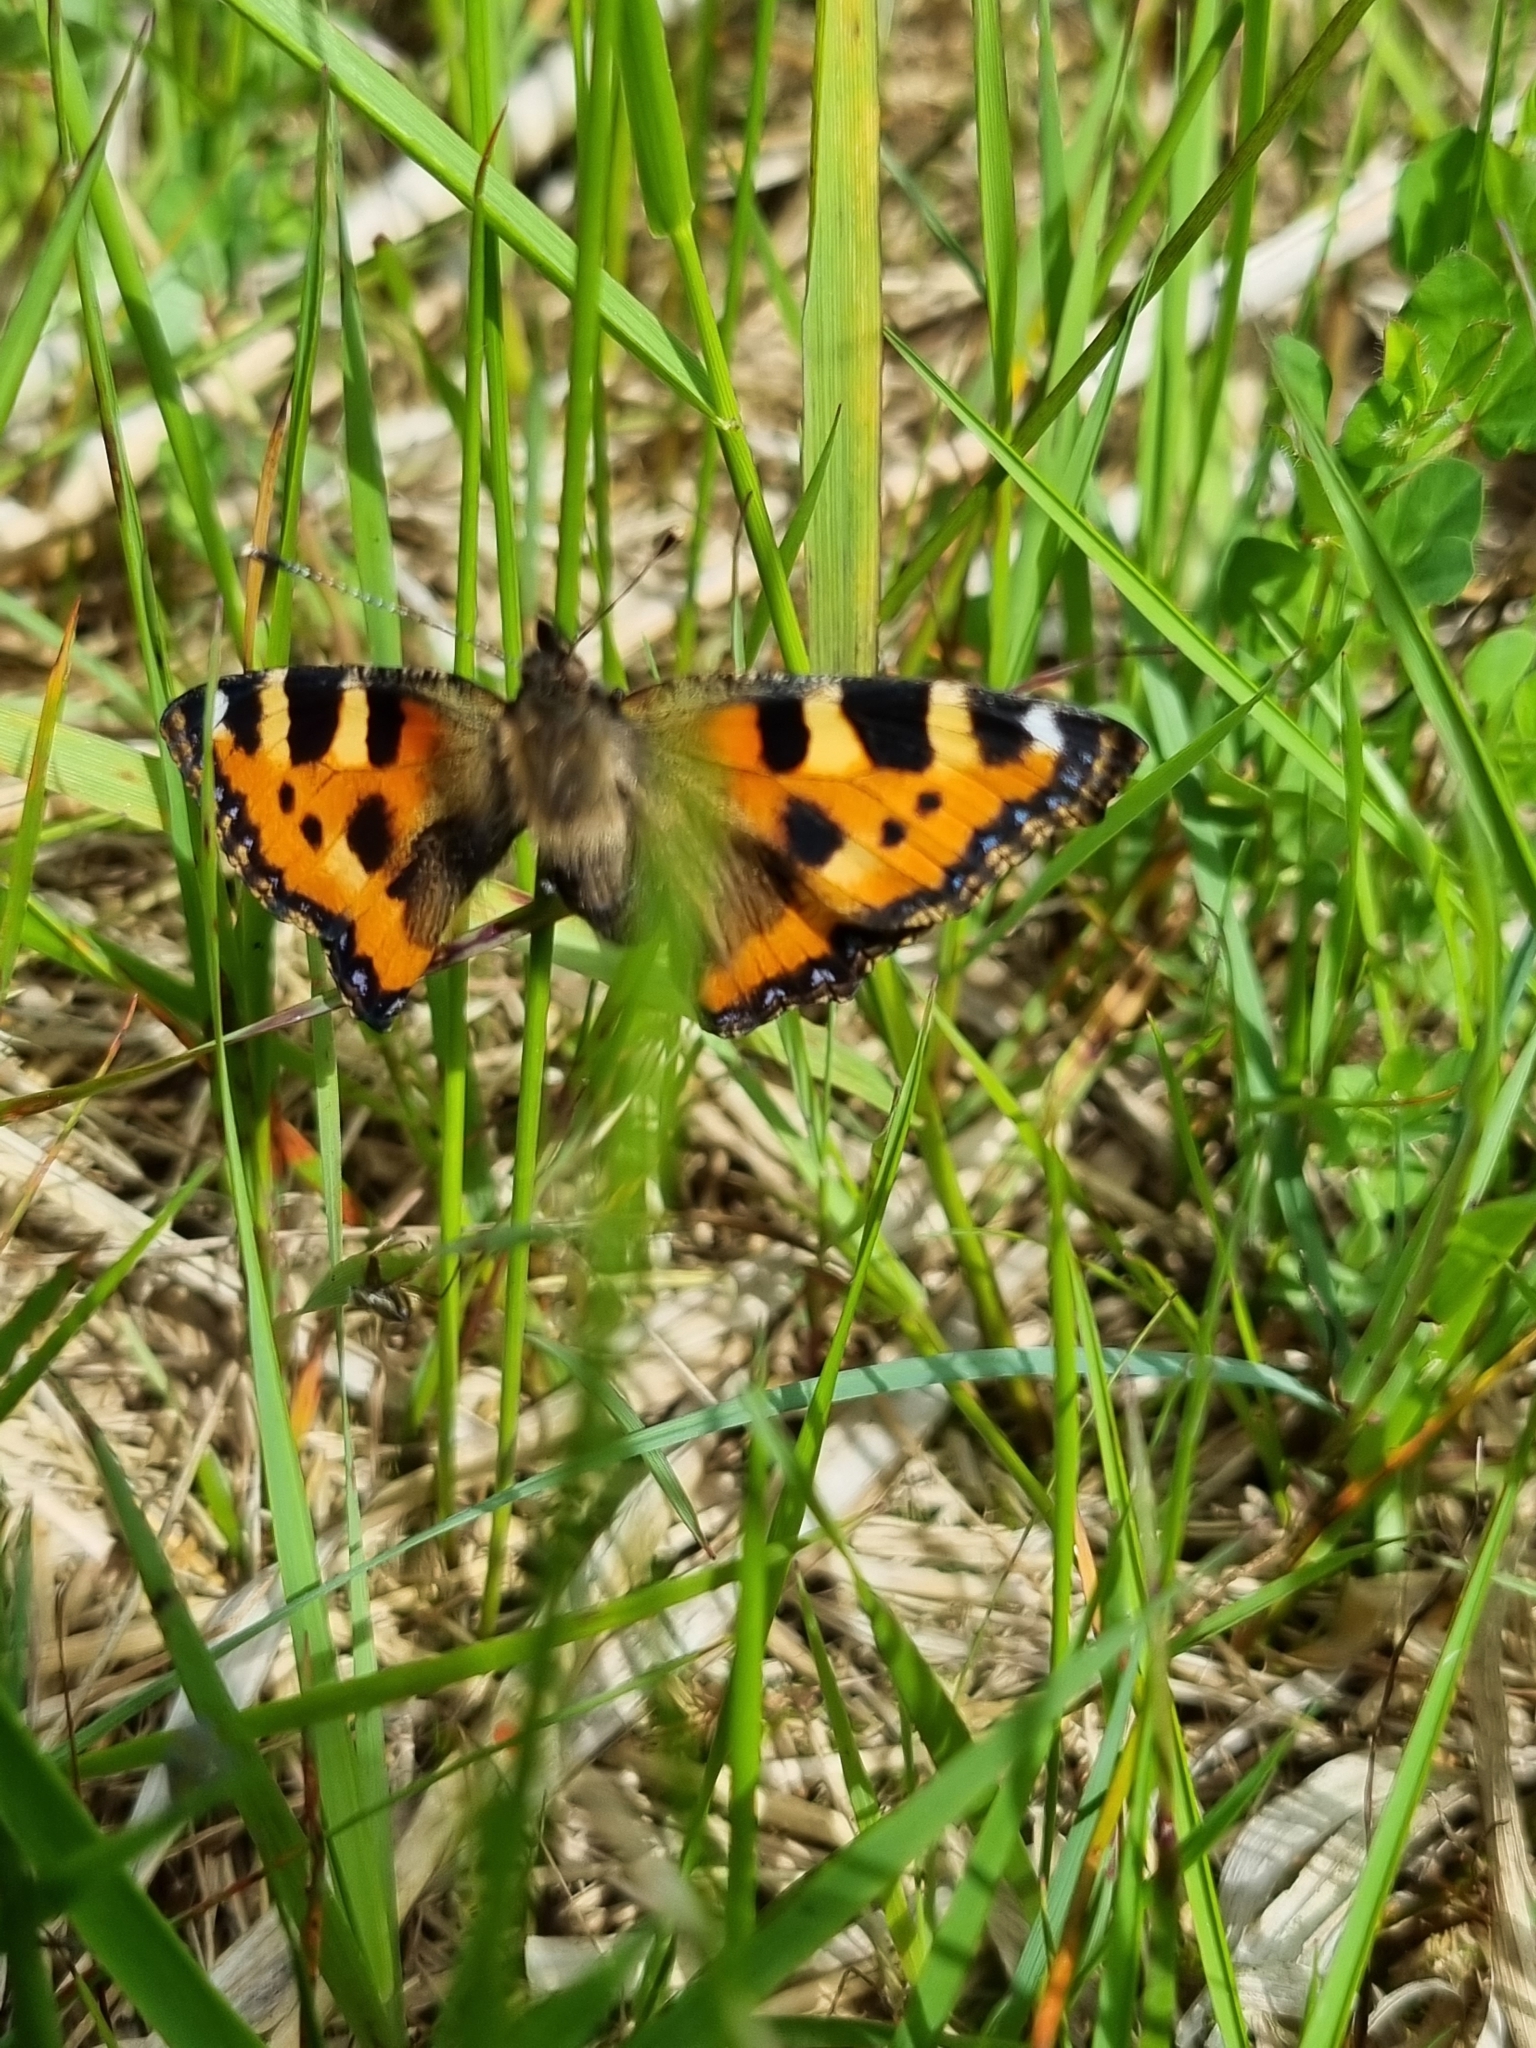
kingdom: Animalia
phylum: Arthropoda
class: Insecta
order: Lepidoptera
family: Nymphalidae
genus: Aglais
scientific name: Aglais urticae
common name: Small tortoiseshell
